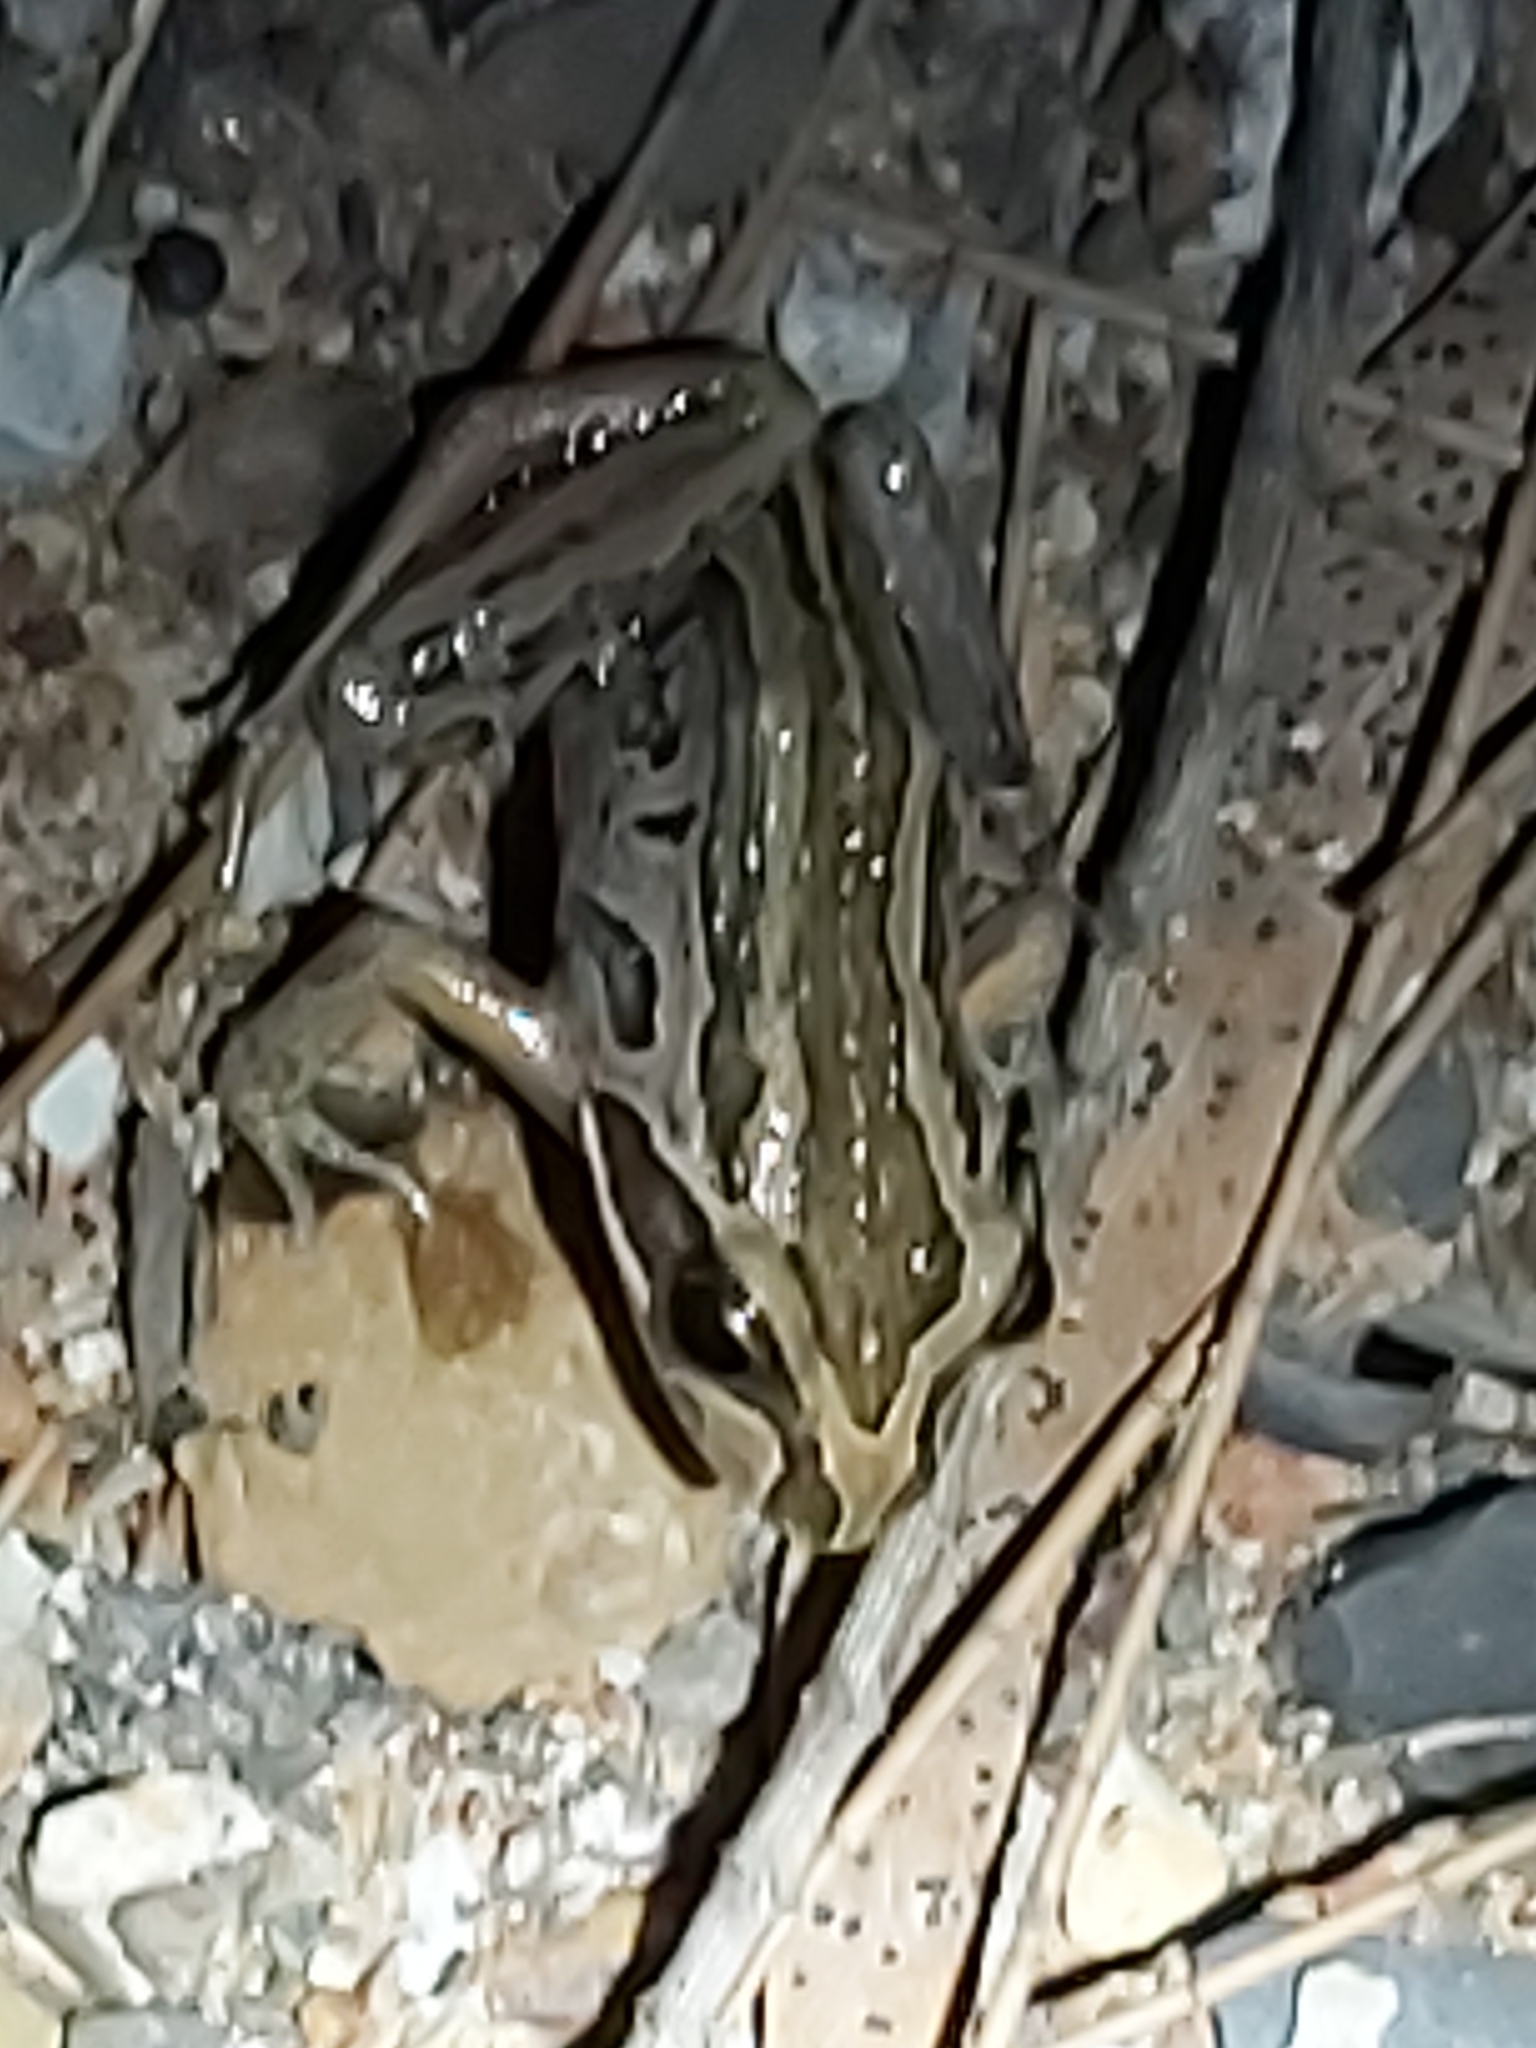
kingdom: Animalia
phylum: Chordata
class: Amphibia
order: Anura
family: Limnodynastidae
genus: Limnodynastes
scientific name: Limnodynastes peronii
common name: Brown frog
